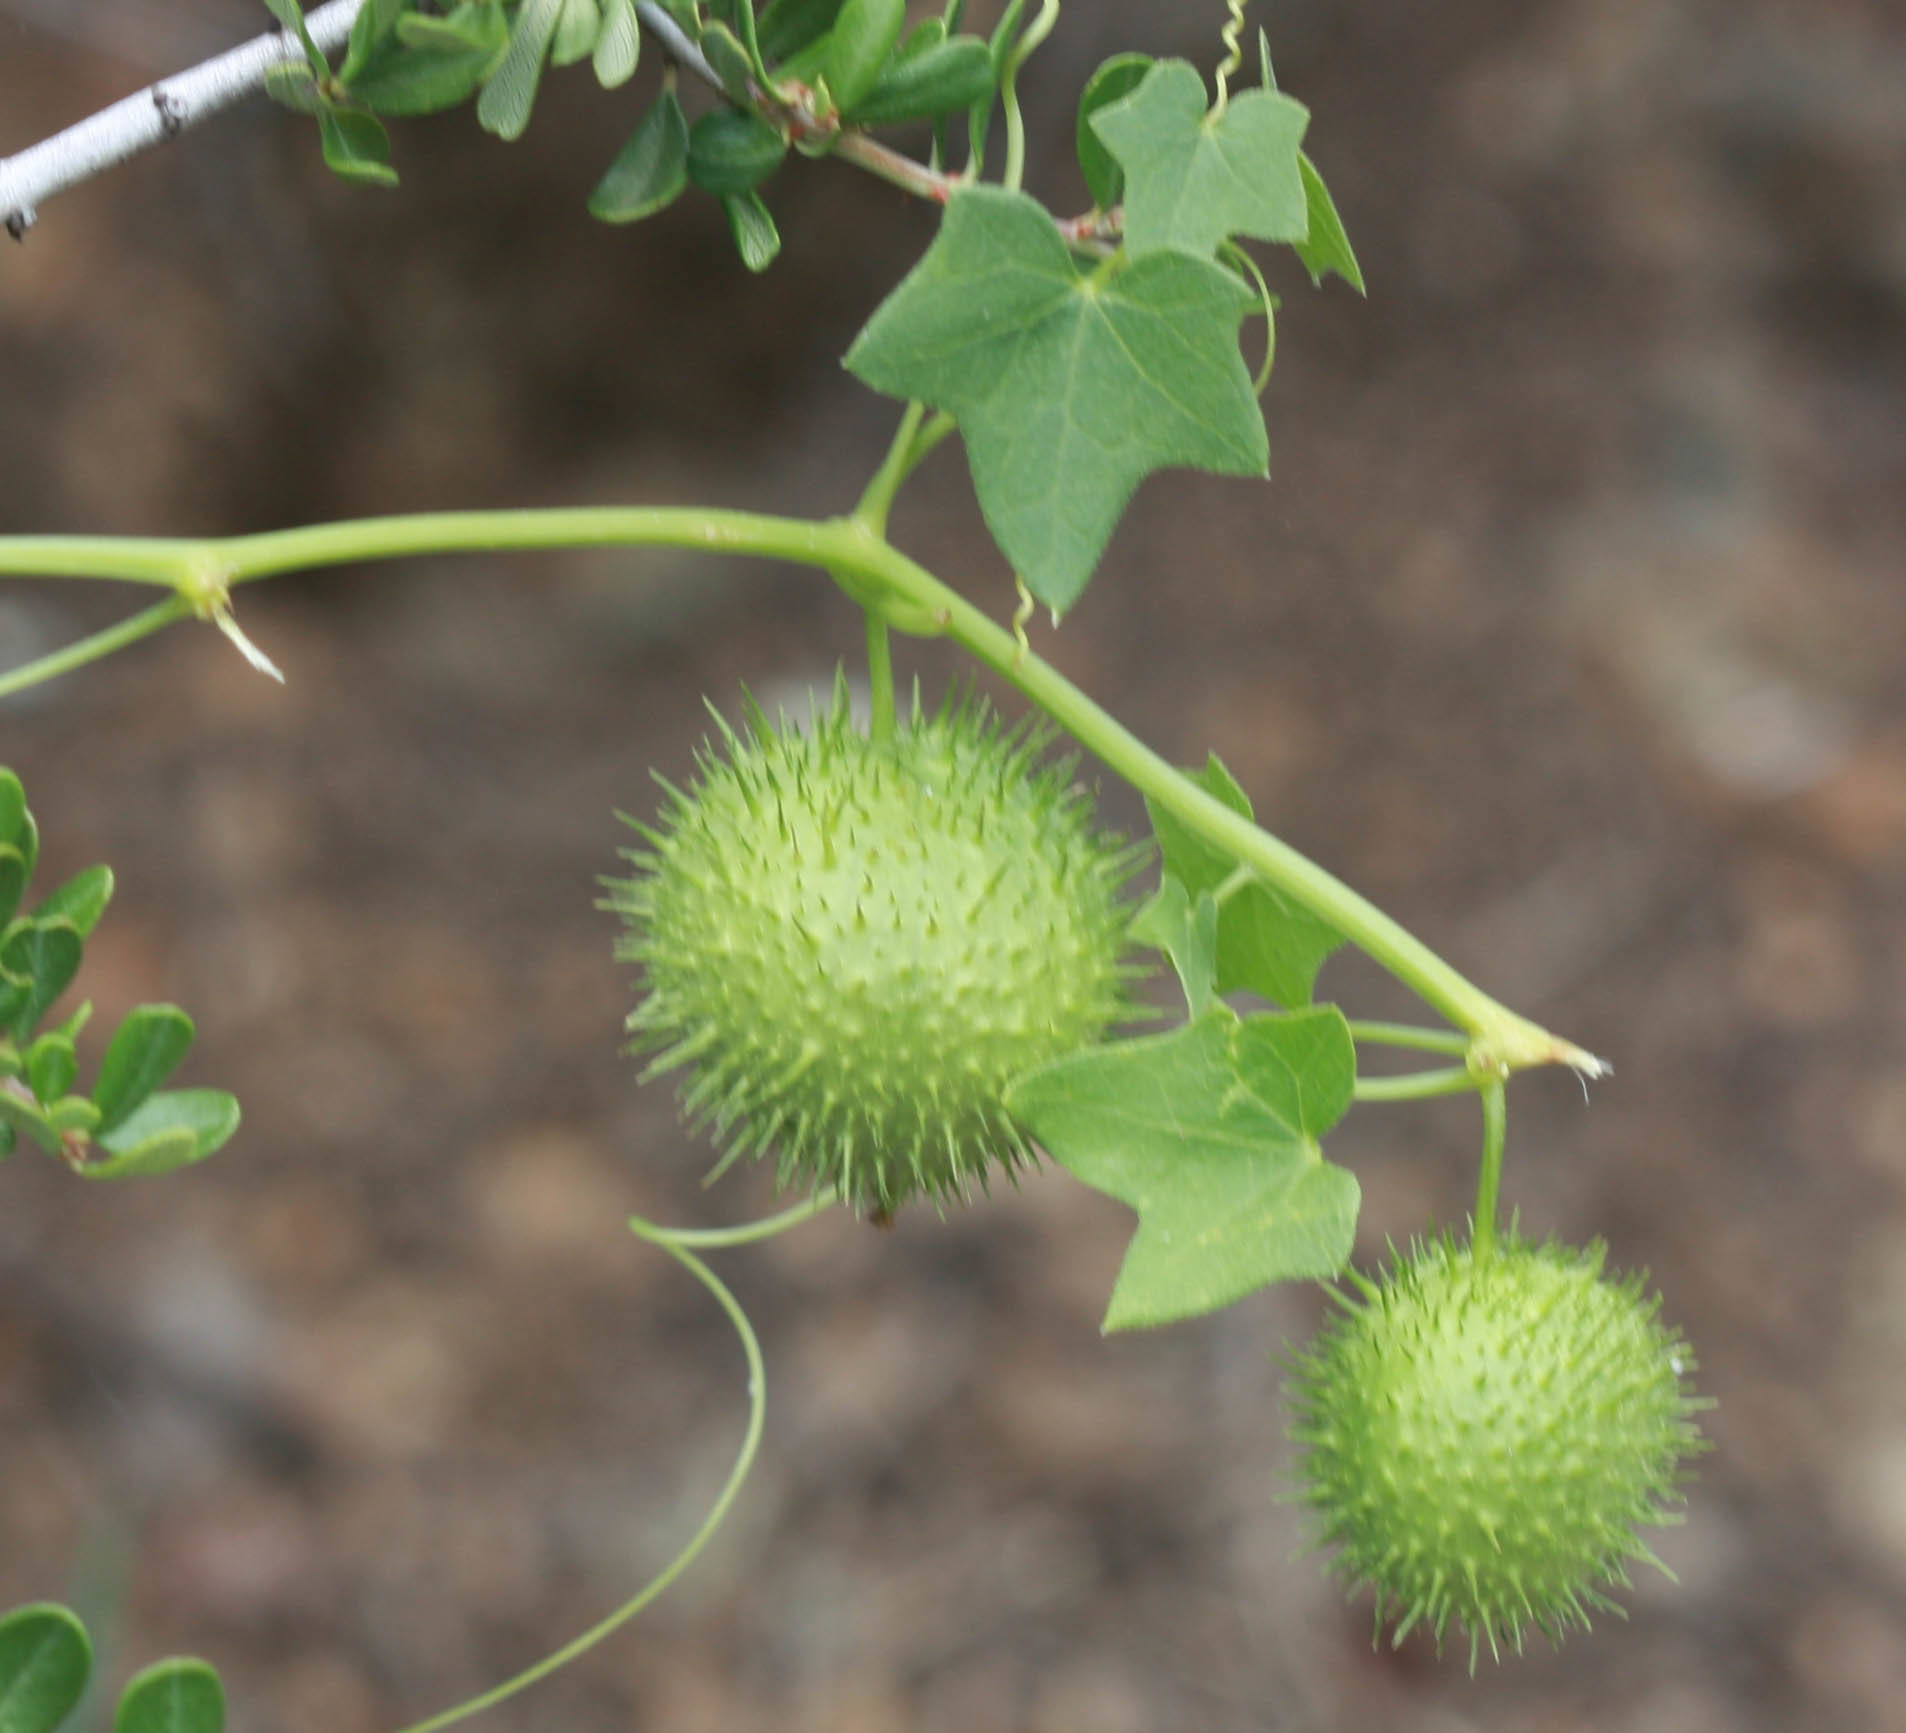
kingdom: Plantae
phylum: Tracheophyta
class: Magnoliopsida
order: Cucurbitales
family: Cucurbitaceae
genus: Marah
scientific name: Marah fabacea
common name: California manroot
